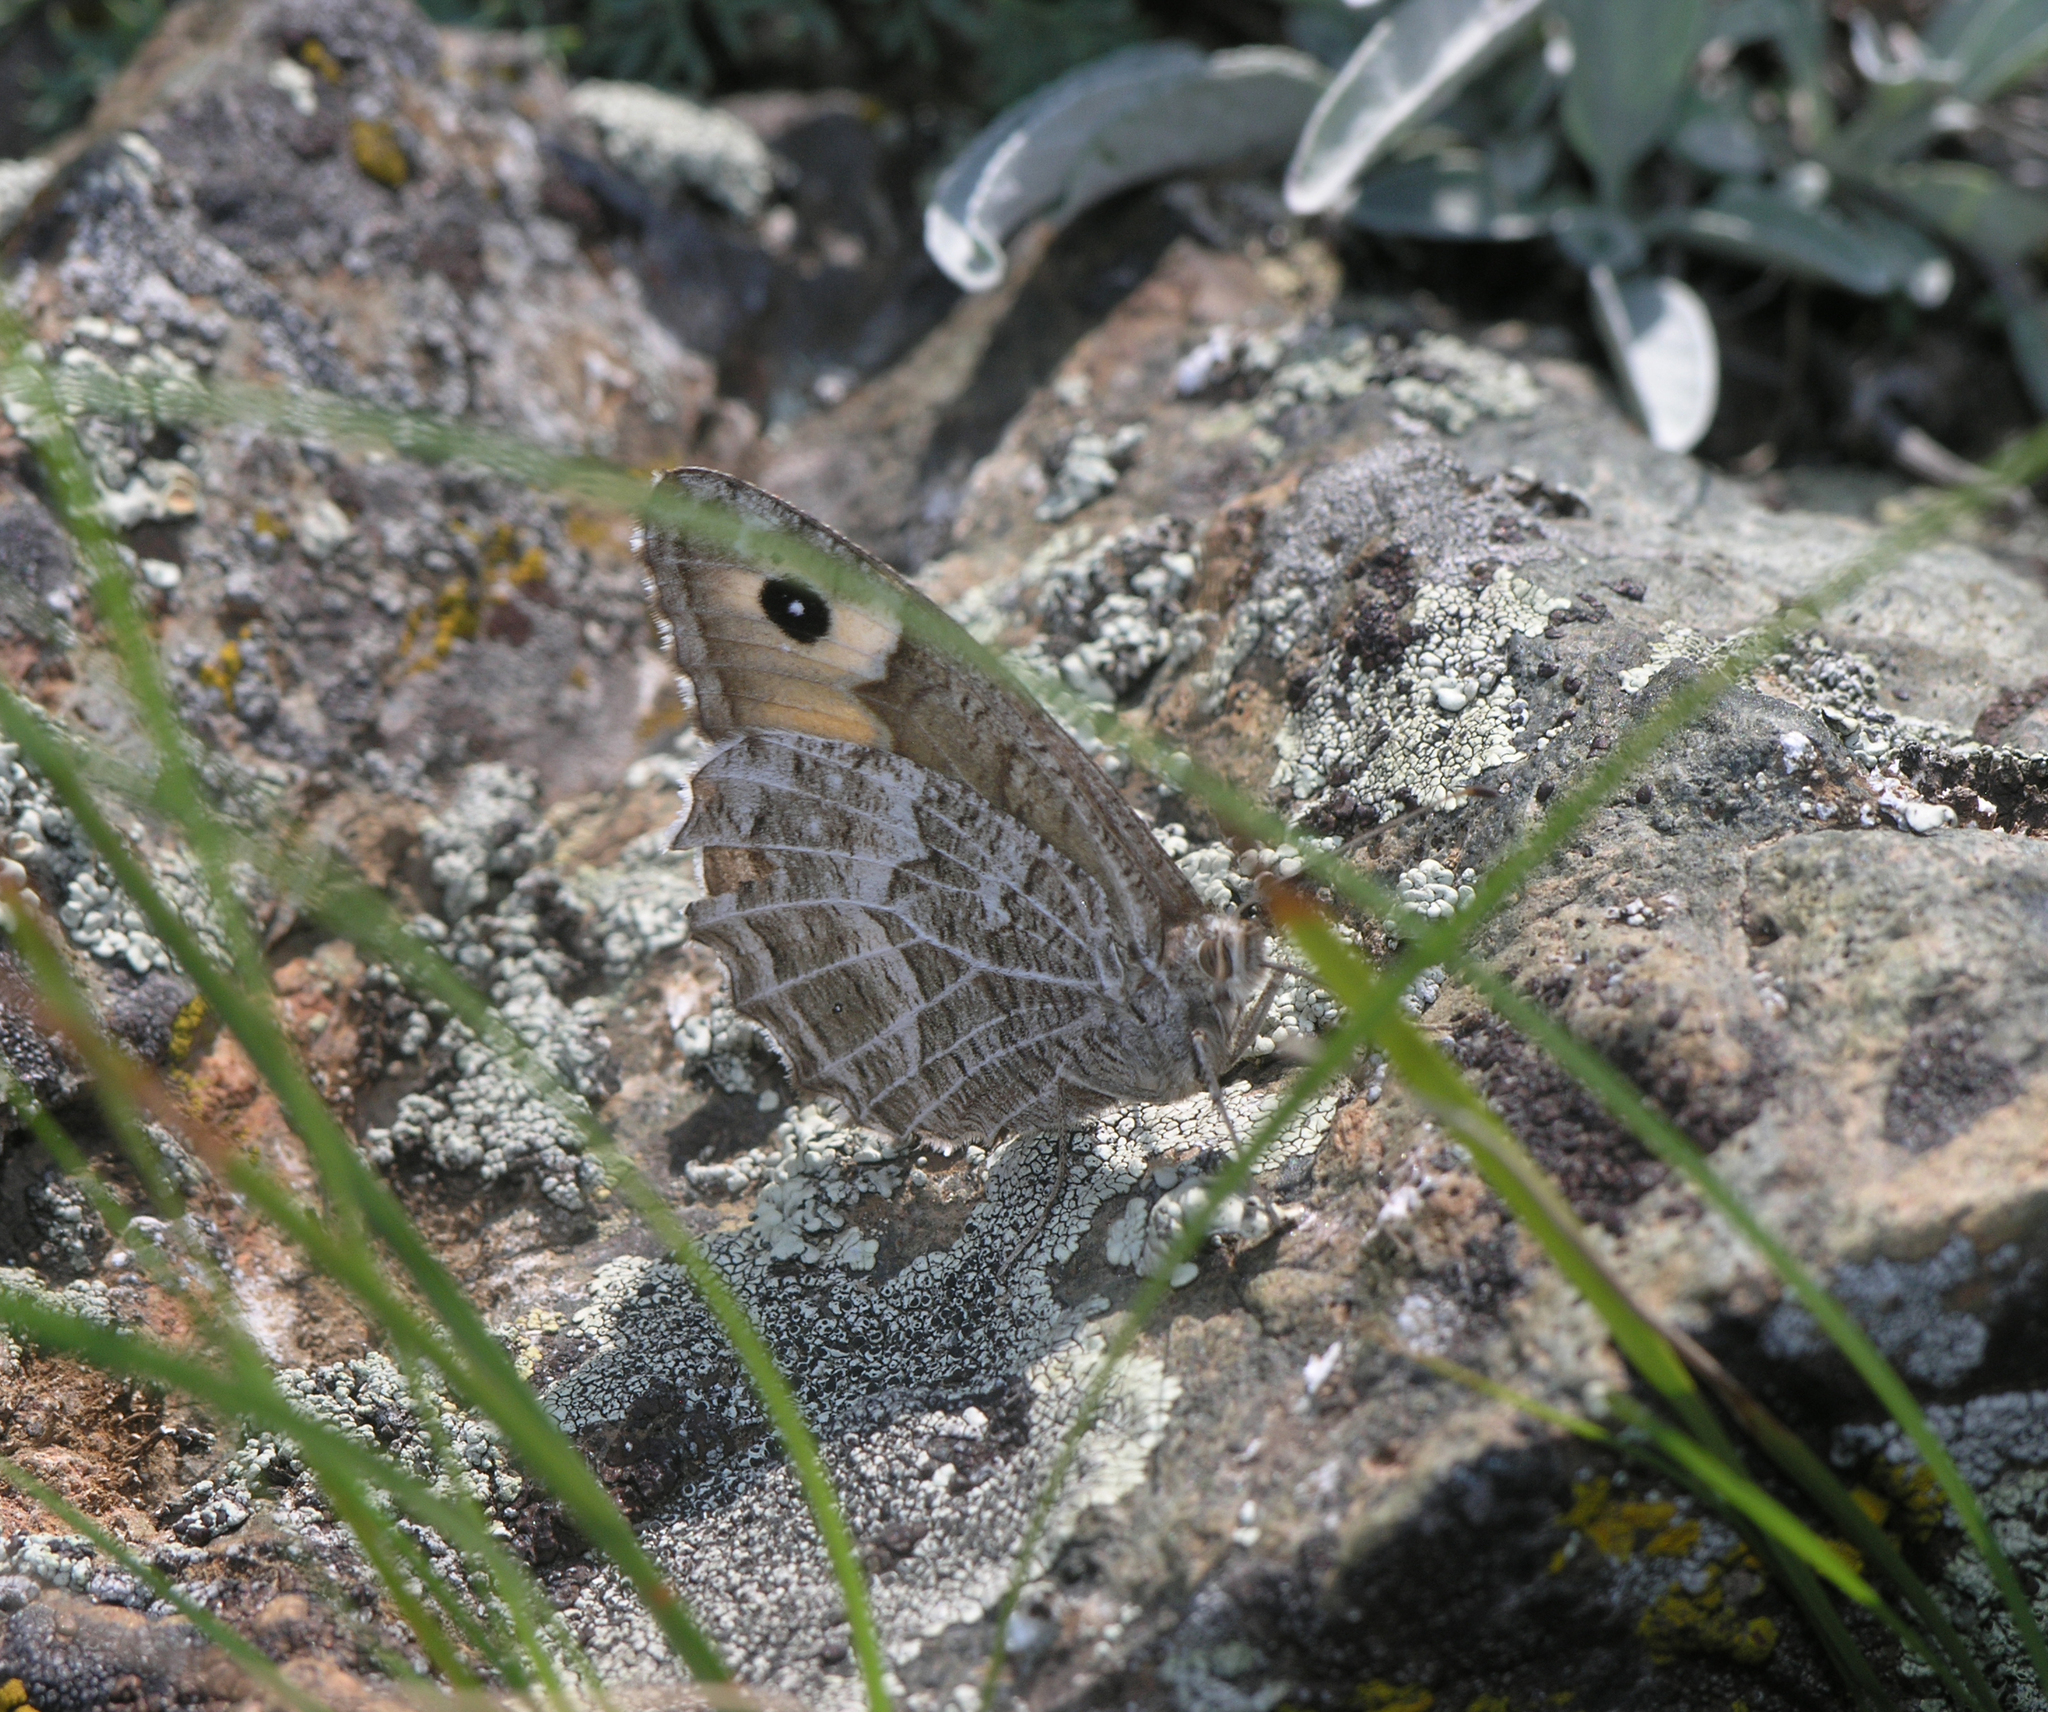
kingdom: Animalia
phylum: Arthropoda
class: Insecta
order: Lepidoptera
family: Nymphalidae
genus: Hipparchia
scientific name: Hipparchia autonoe
